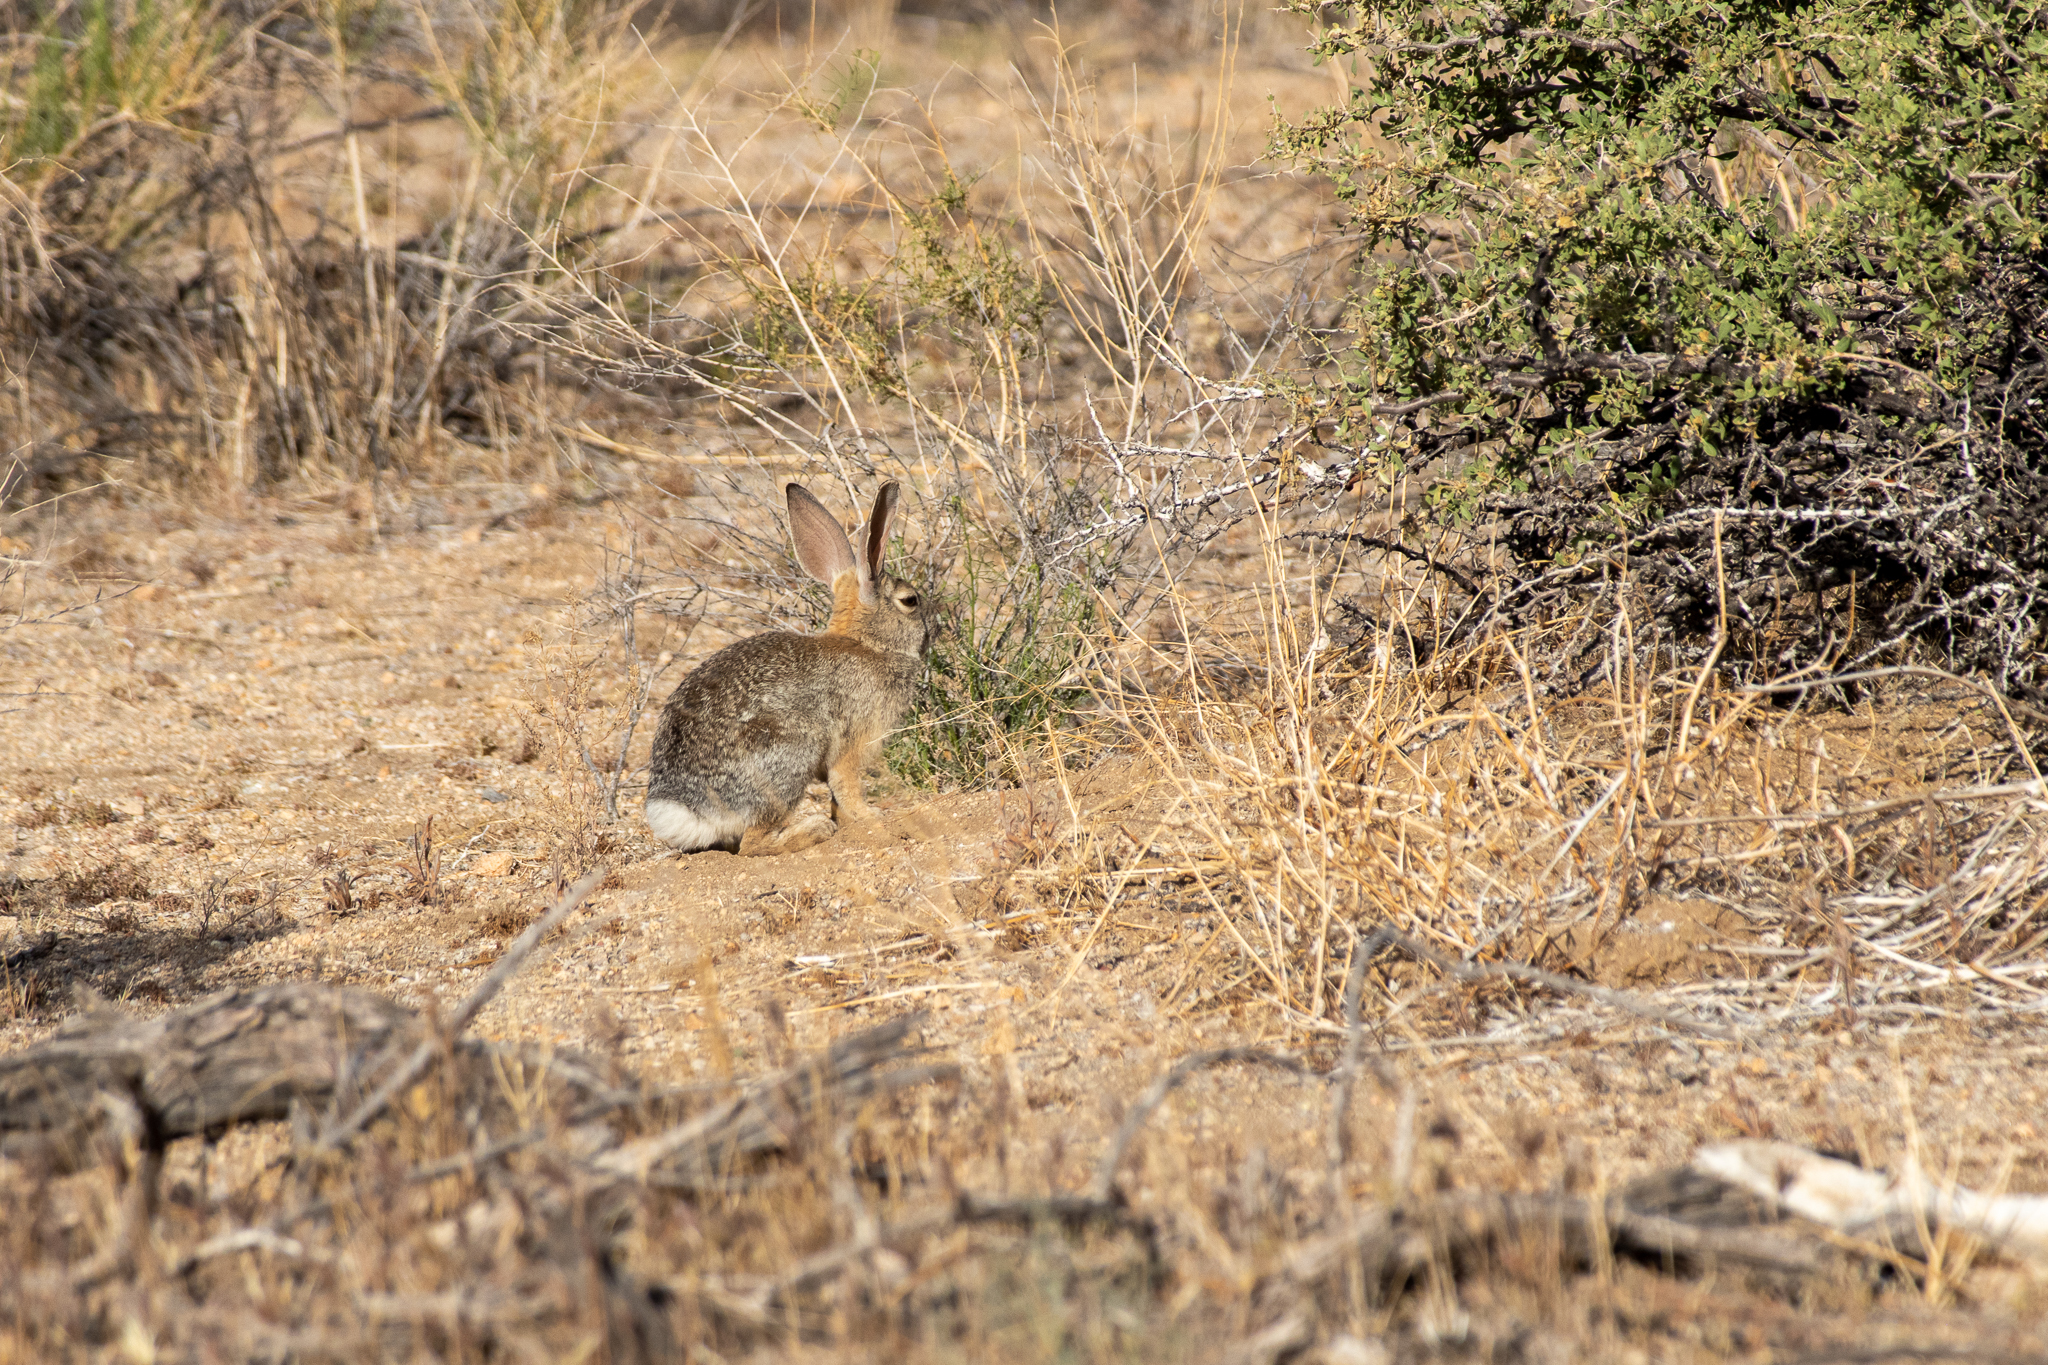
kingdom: Animalia
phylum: Chordata
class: Mammalia
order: Lagomorpha
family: Leporidae
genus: Sylvilagus
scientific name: Sylvilagus audubonii
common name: Desert cottontail
